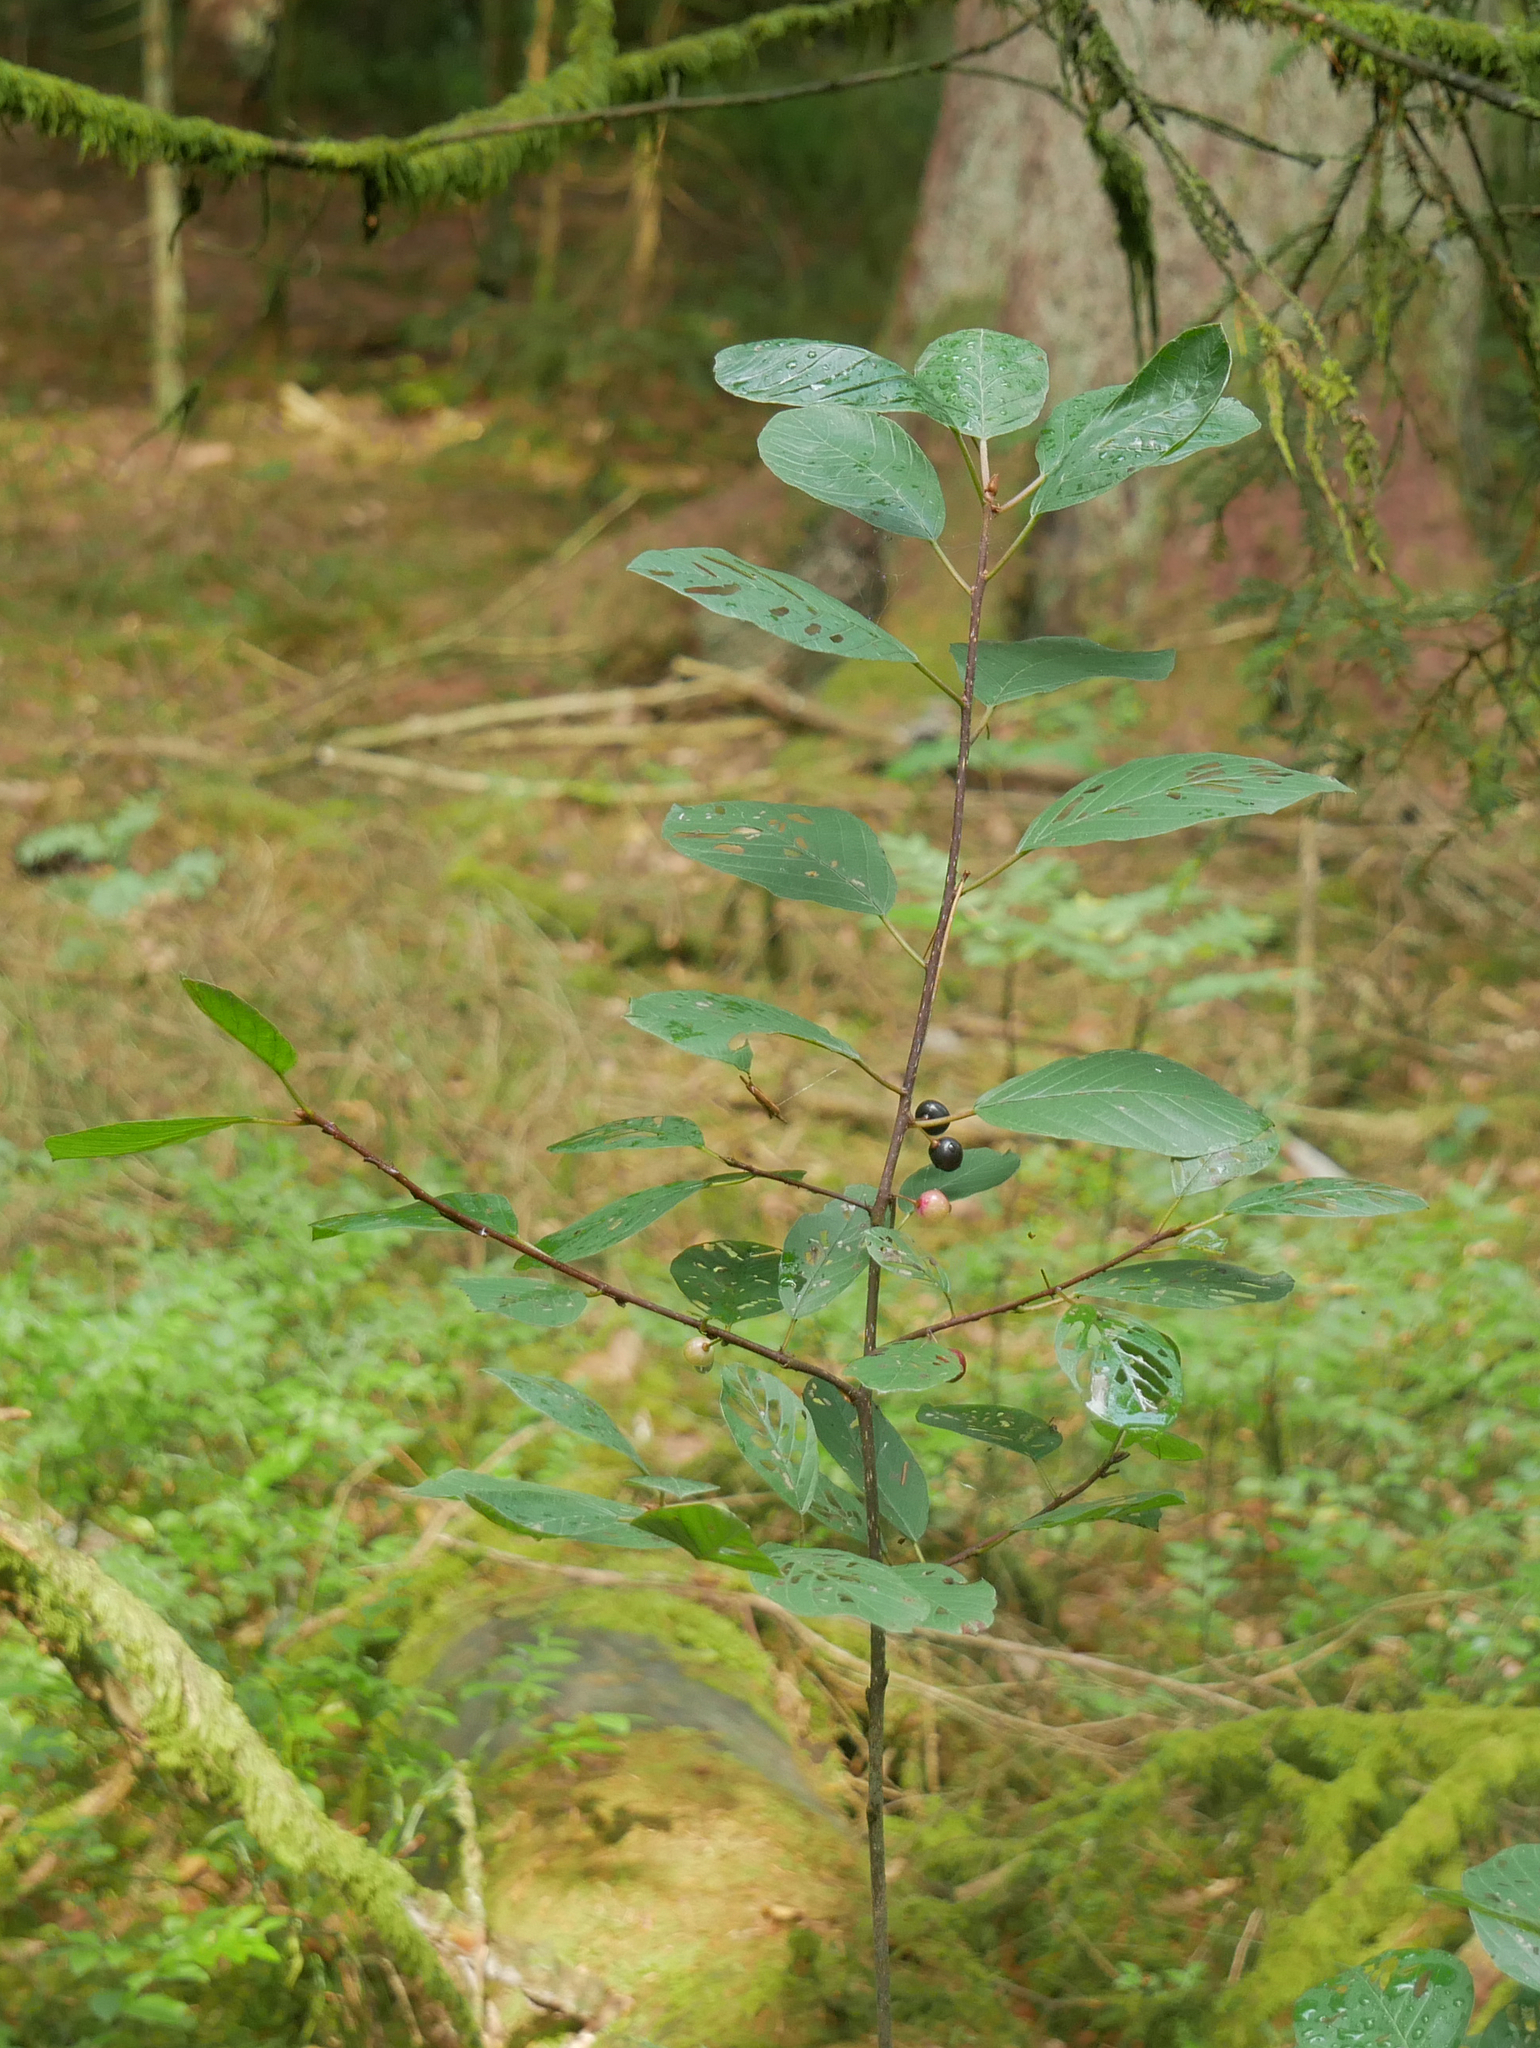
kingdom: Plantae
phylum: Tracheophyta
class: Magnoliopsida
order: Rosales
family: Rhamnaceae
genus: Frangula
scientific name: Frangula alnus
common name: Alder buckthorn
